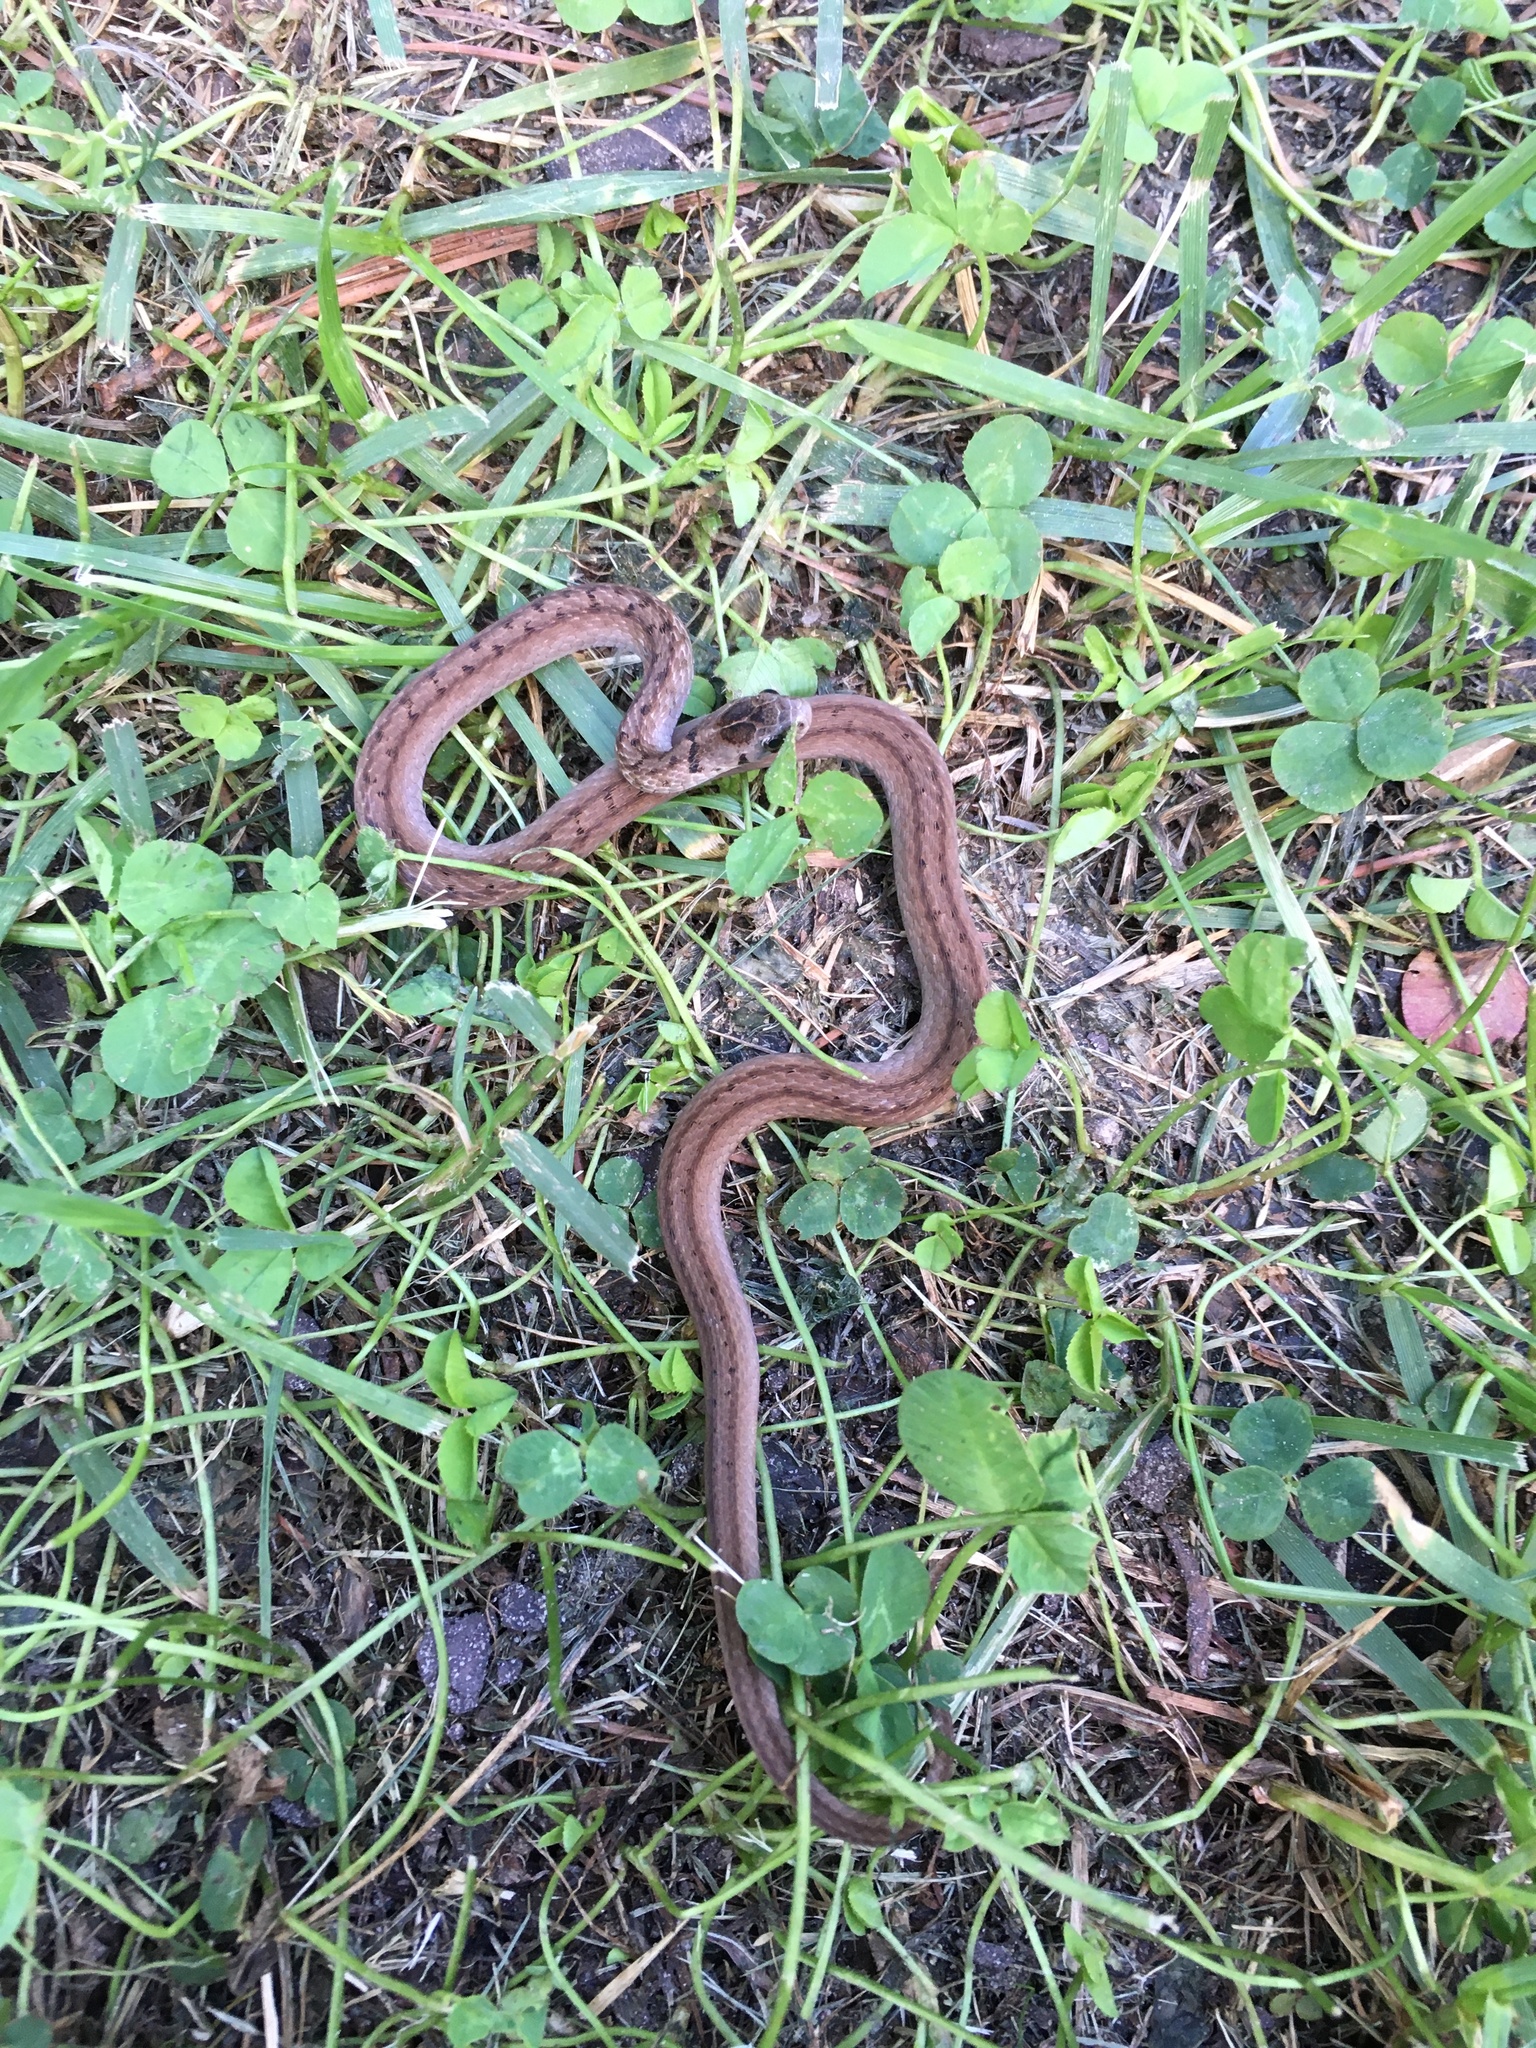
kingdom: Animalia
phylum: Chordata
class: Squamata
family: Colubridae
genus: Storeria
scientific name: Storeria dekayi
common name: (dekay’s) brown snake
